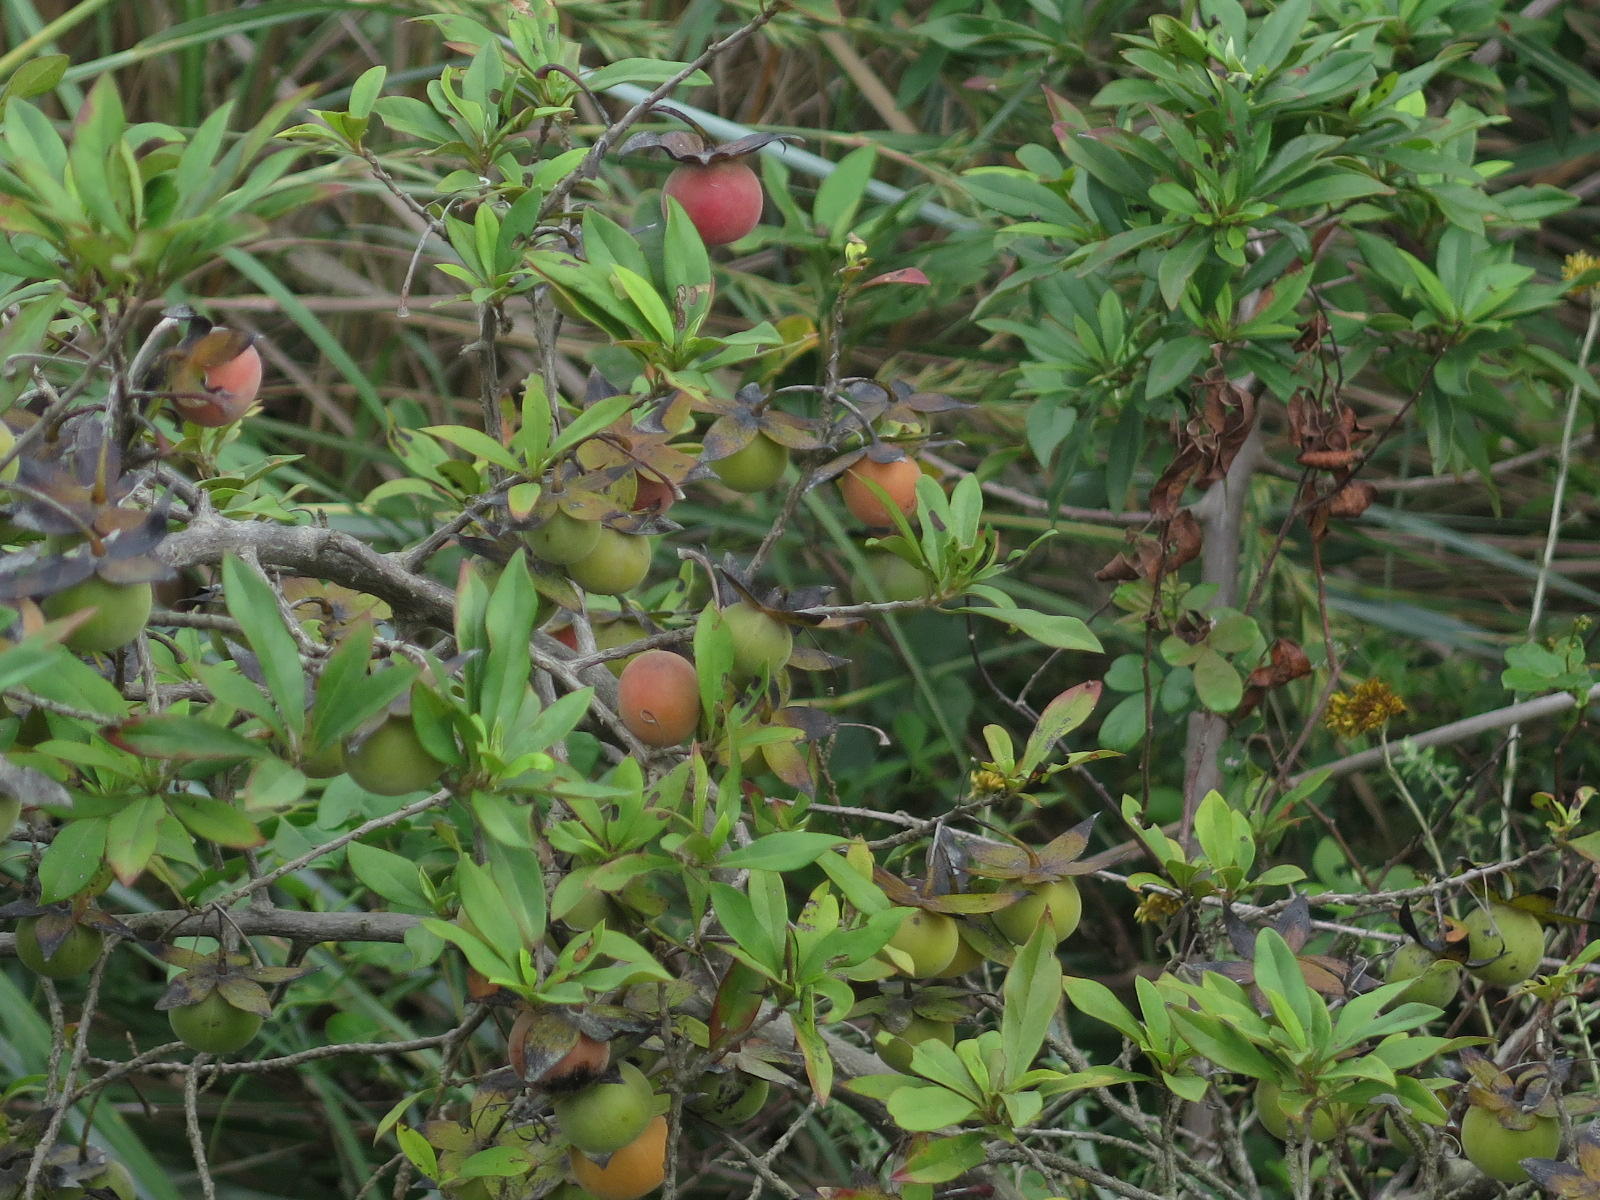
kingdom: Plantae
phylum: Tracheophyta
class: Magnoliopsida
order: Ericales
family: Ebenaceae
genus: Diospyros
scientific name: Diospyros dichrophylla
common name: Common star-apple
